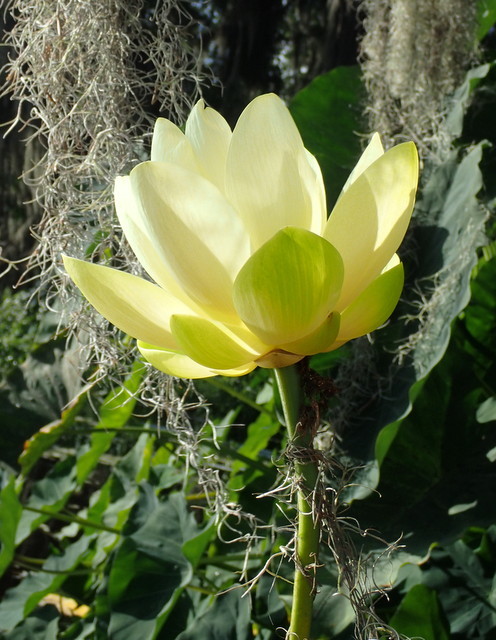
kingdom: Plantae
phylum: Tracheophyta
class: Magnoliopsida
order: Proteales
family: Nelumbonaceae
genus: Nelumbo
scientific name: Nelumbo lutea
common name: American lotus
